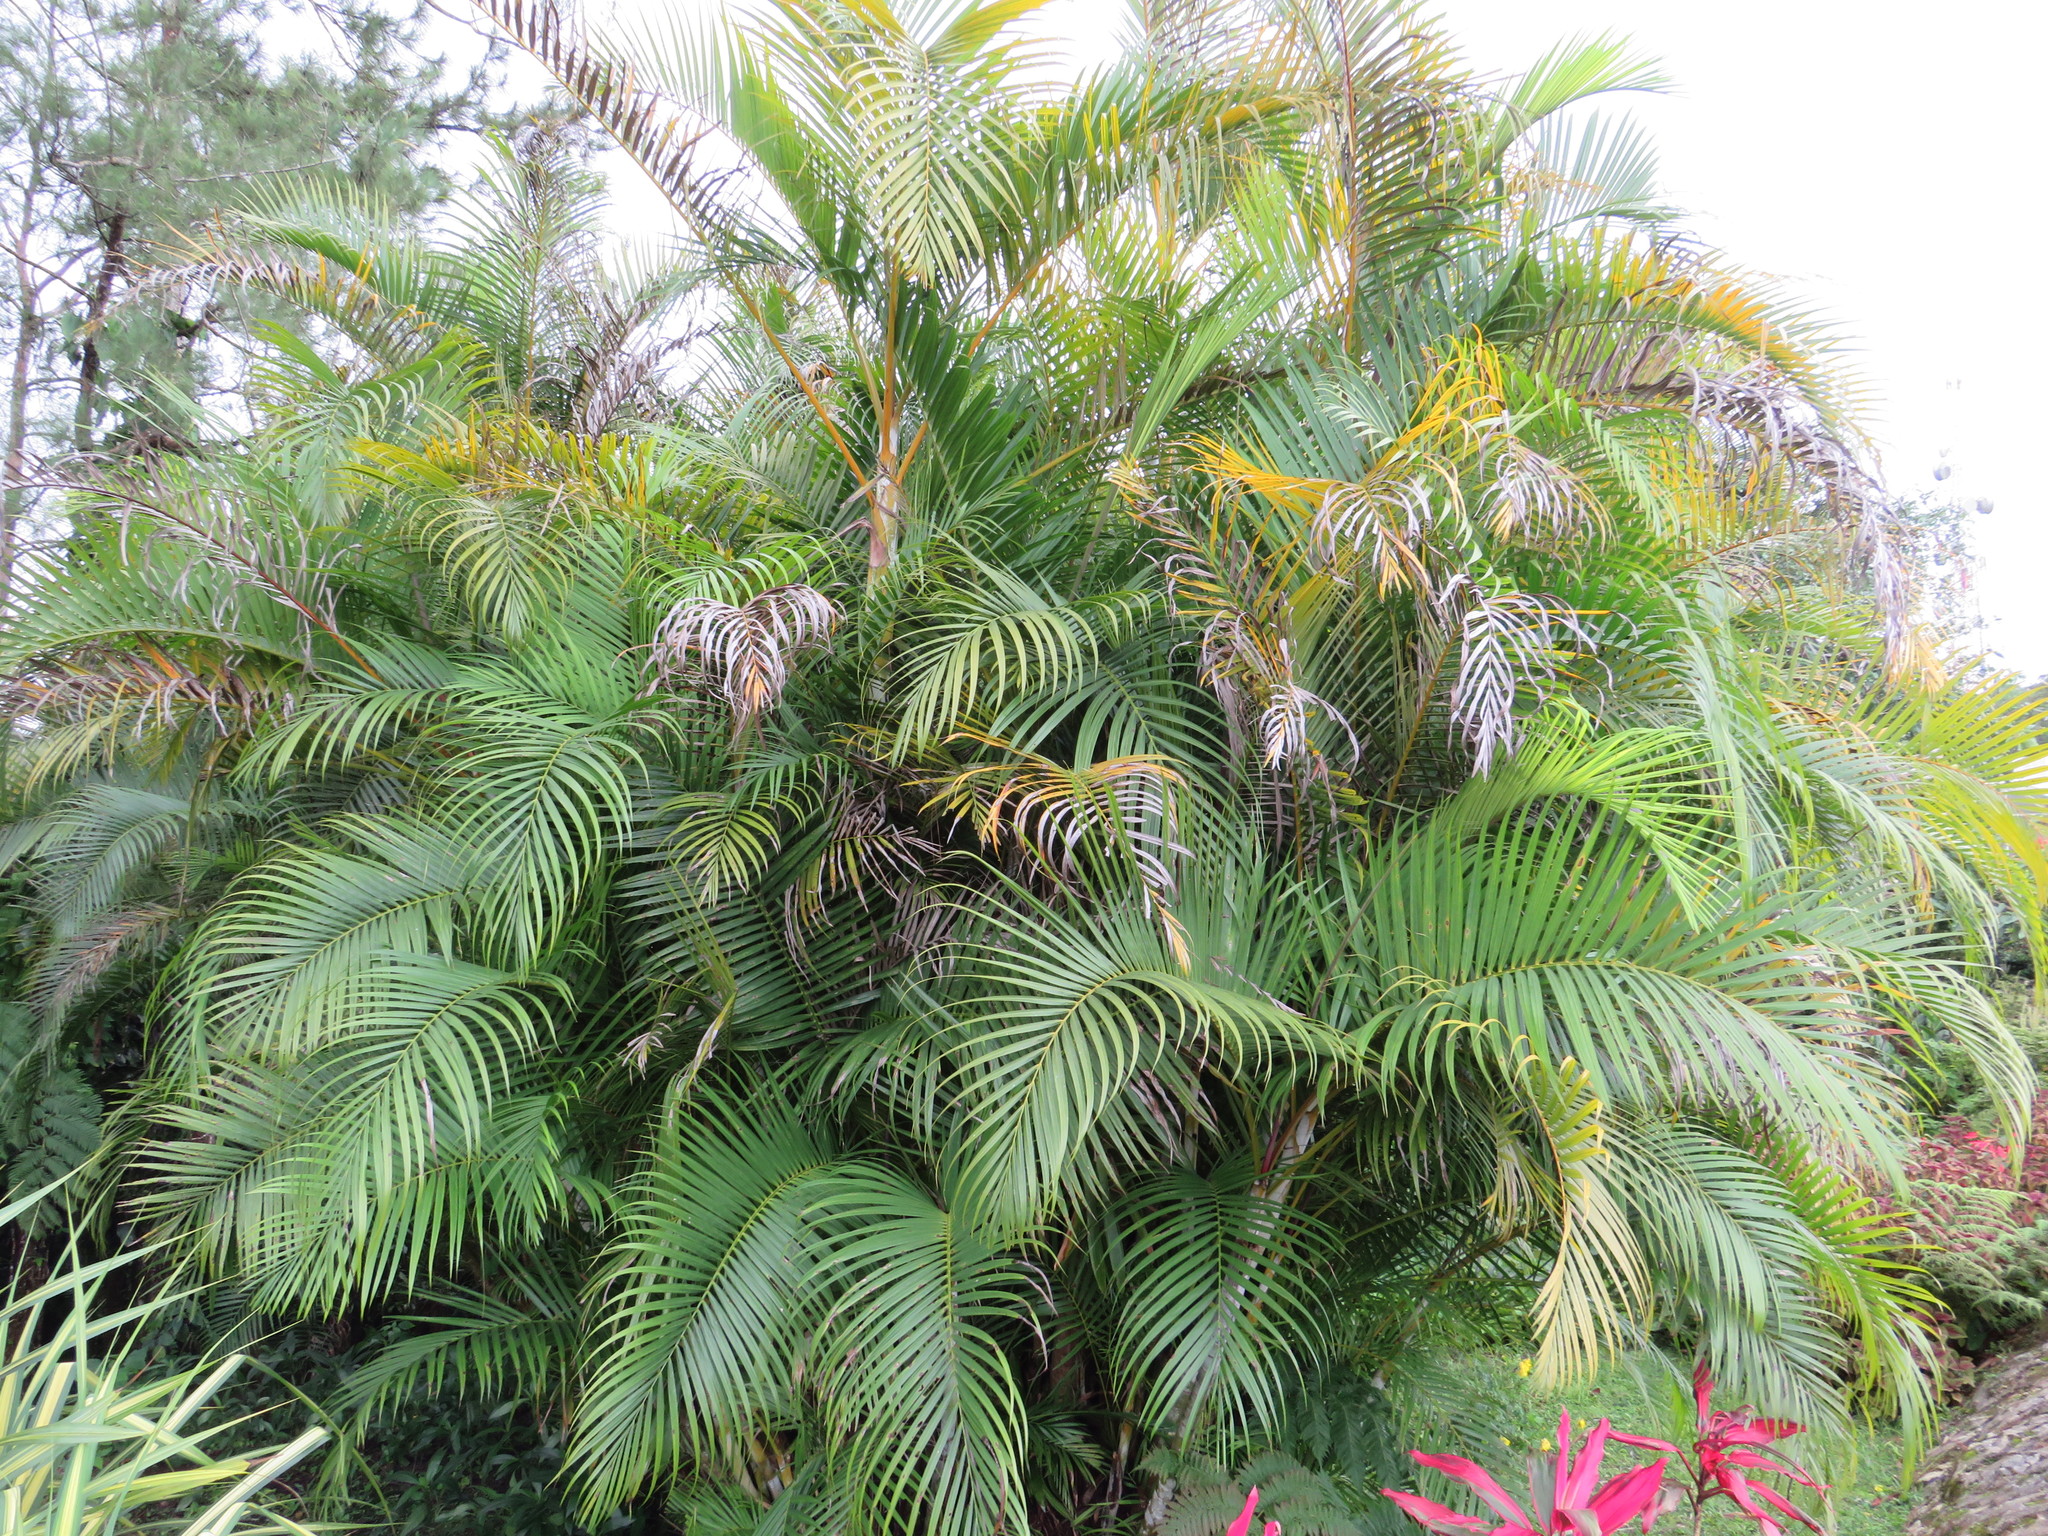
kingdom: Plantae
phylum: Tracheophyta
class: Liliopsida
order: Arecales
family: Arecaceae
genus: Dypsis
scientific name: Dypsis lutescens
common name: Yellow butterfly palm
